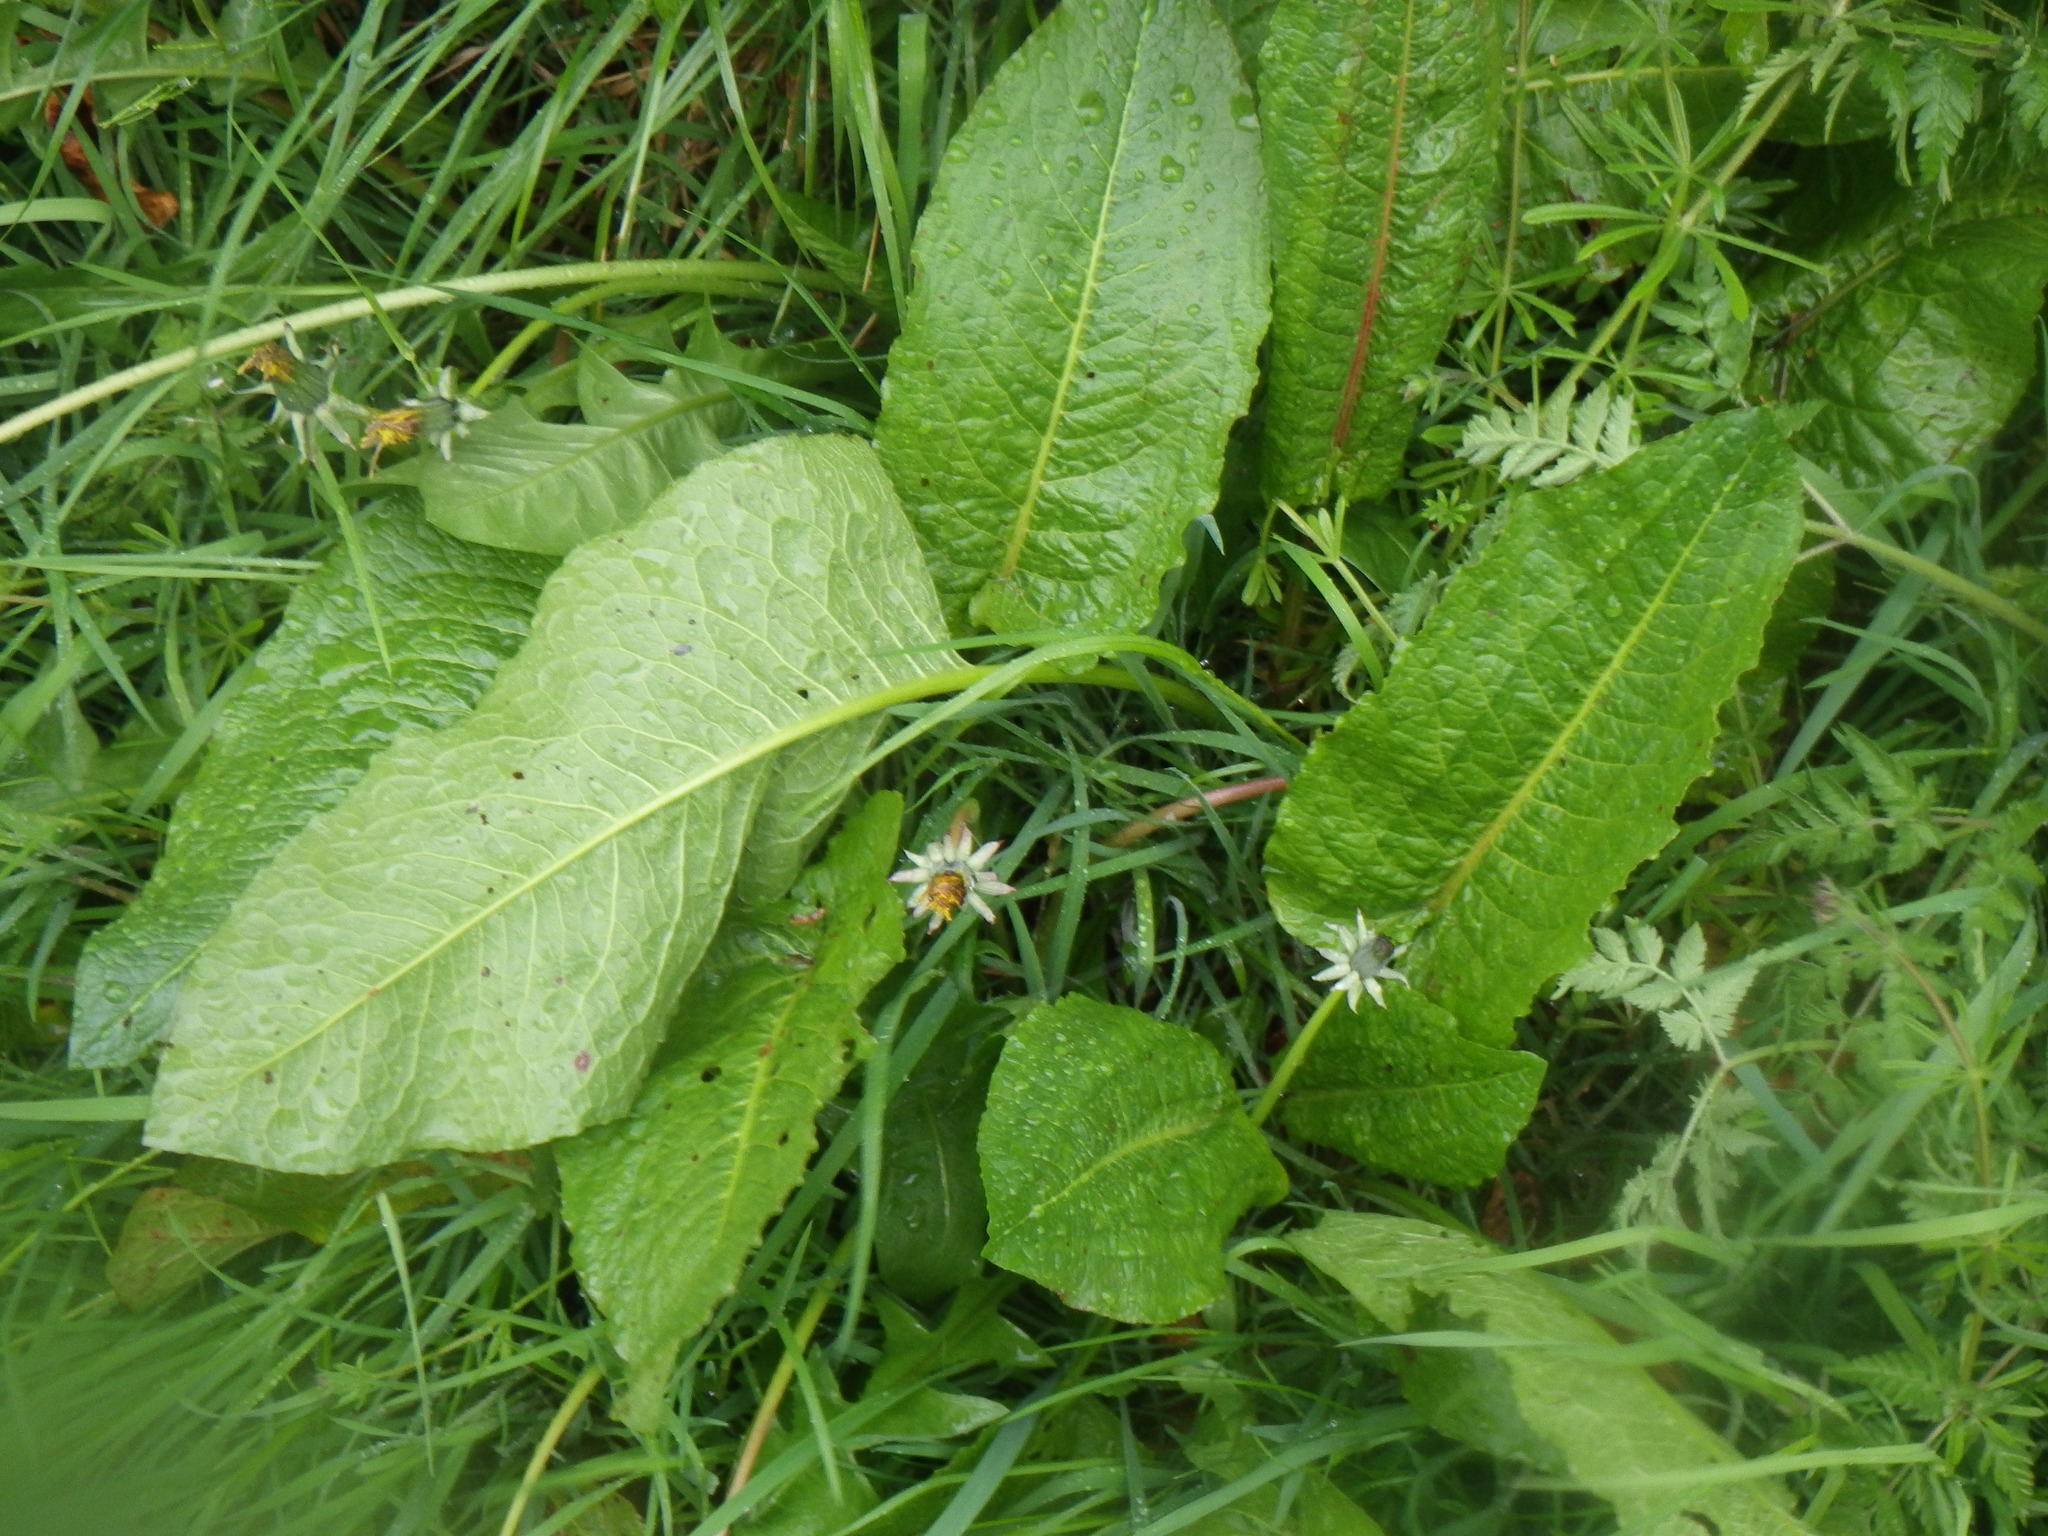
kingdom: Plantae
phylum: Tracheophyta
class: Magnoliopsida
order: Caryophyllales
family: Polygonaceae
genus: Rumex
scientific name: Rumex obtusifolius
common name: Bitter dock
